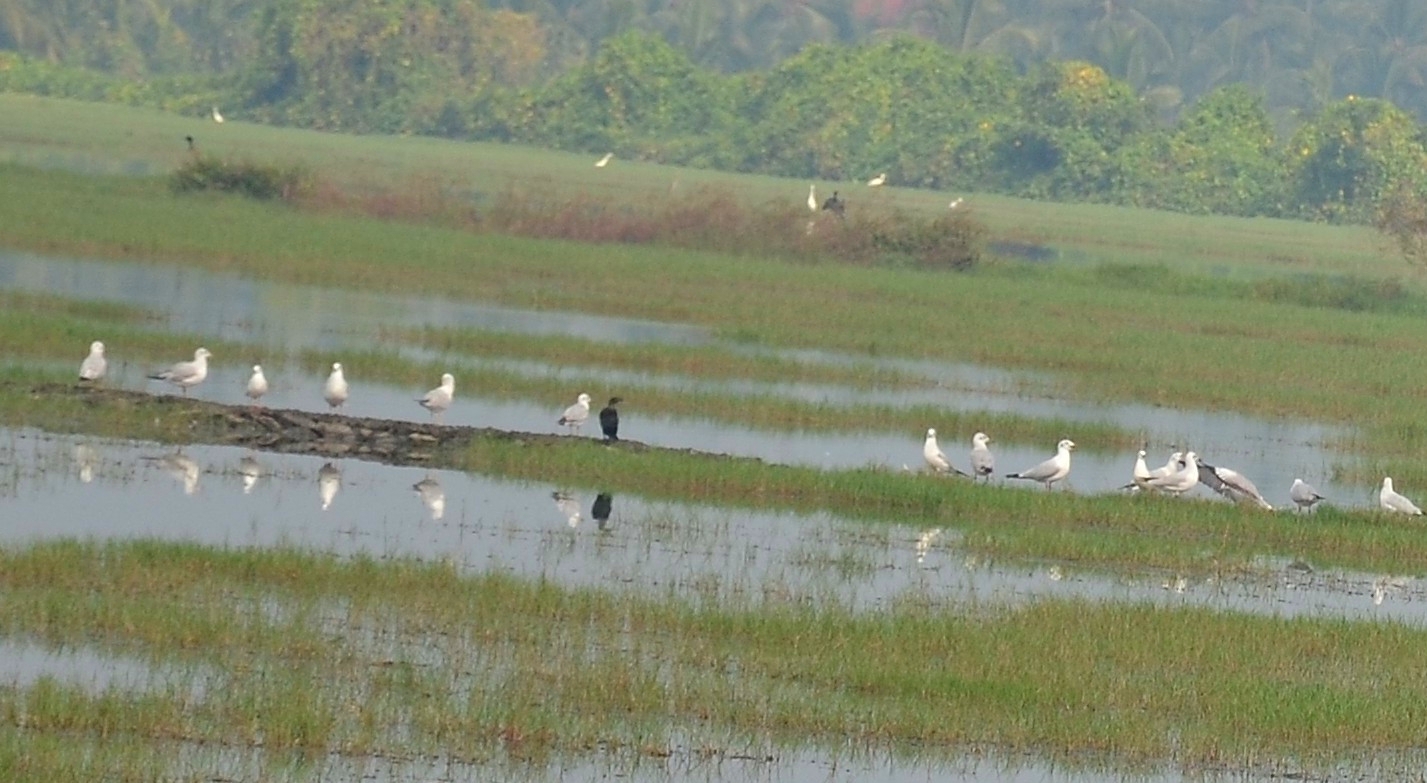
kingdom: Animalia
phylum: Chordata
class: Aves
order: Charadriiformes
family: Laridae
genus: Chroicocephalus
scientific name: Chroicocephalus brunnicephalus
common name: Brown-headed gull
